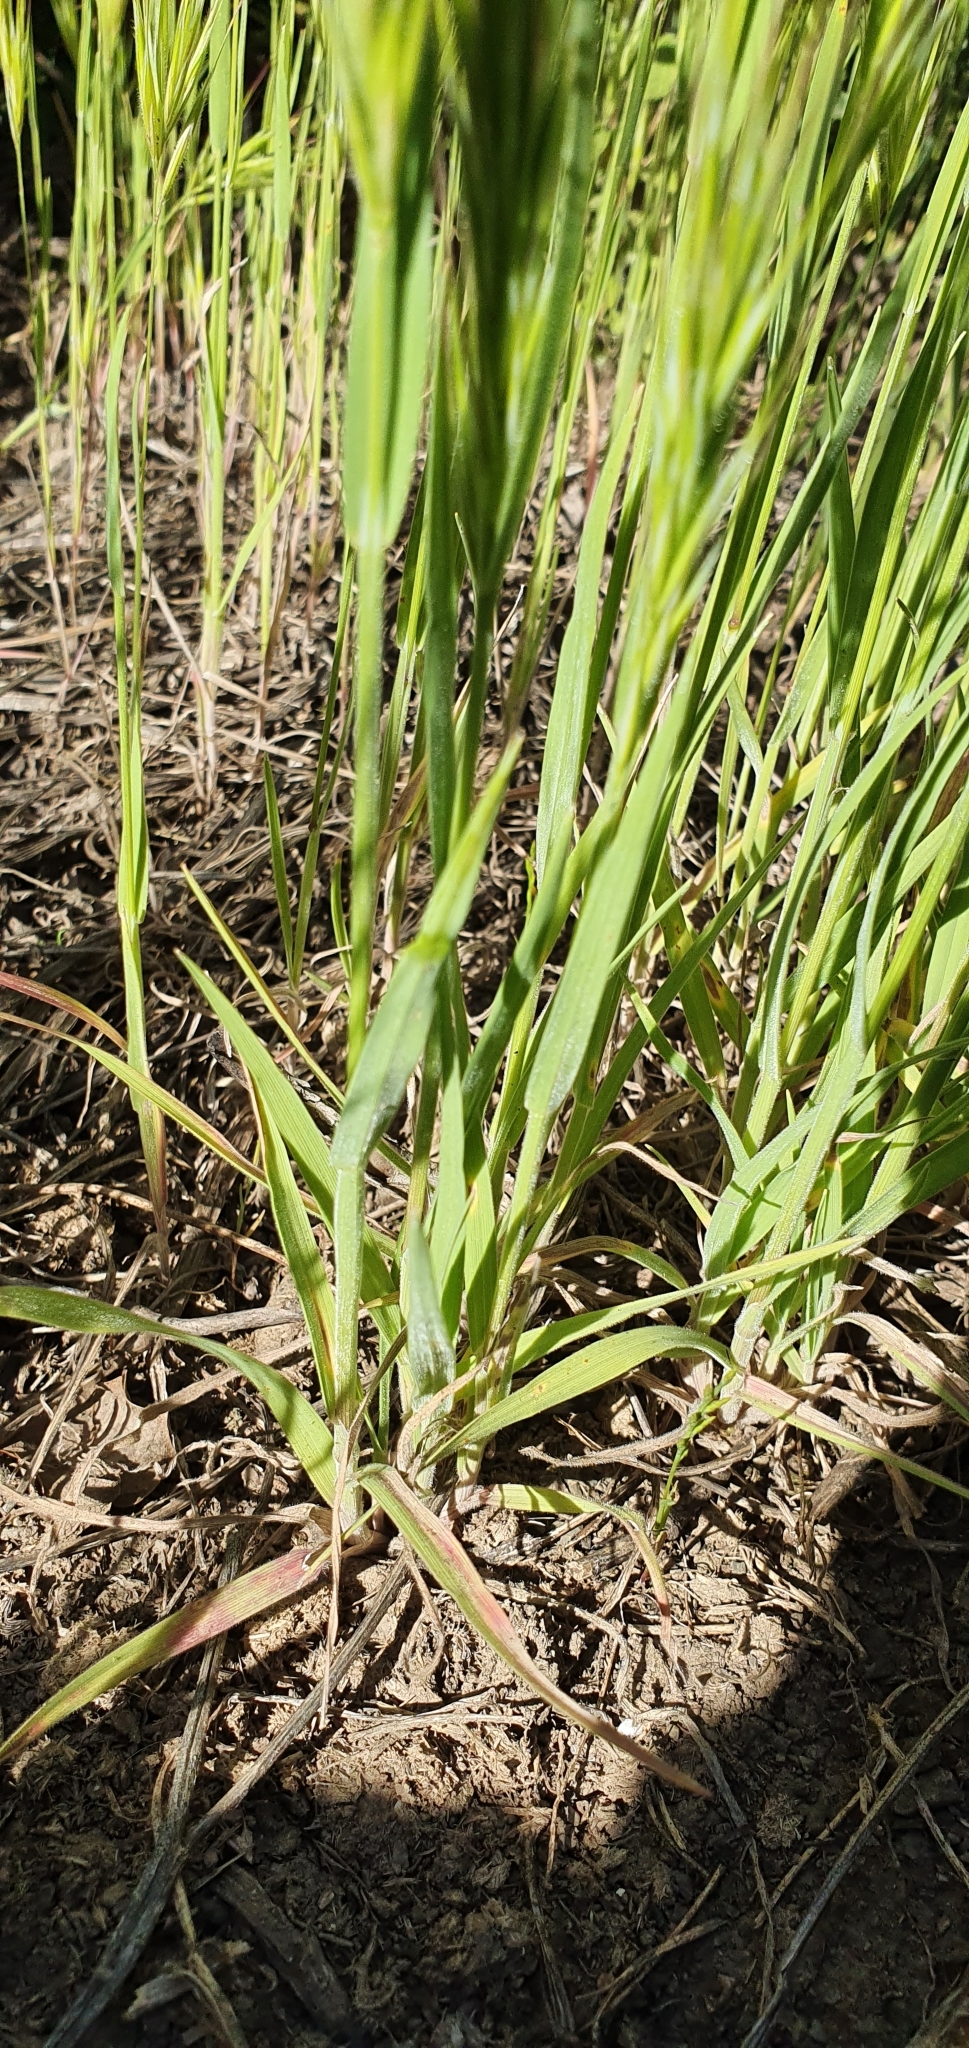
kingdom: Plantae
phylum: Tracheophyta
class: Liliopsida
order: Poales
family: Poaceae
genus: Bromus
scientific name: Bromus rubens
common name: Red brome
